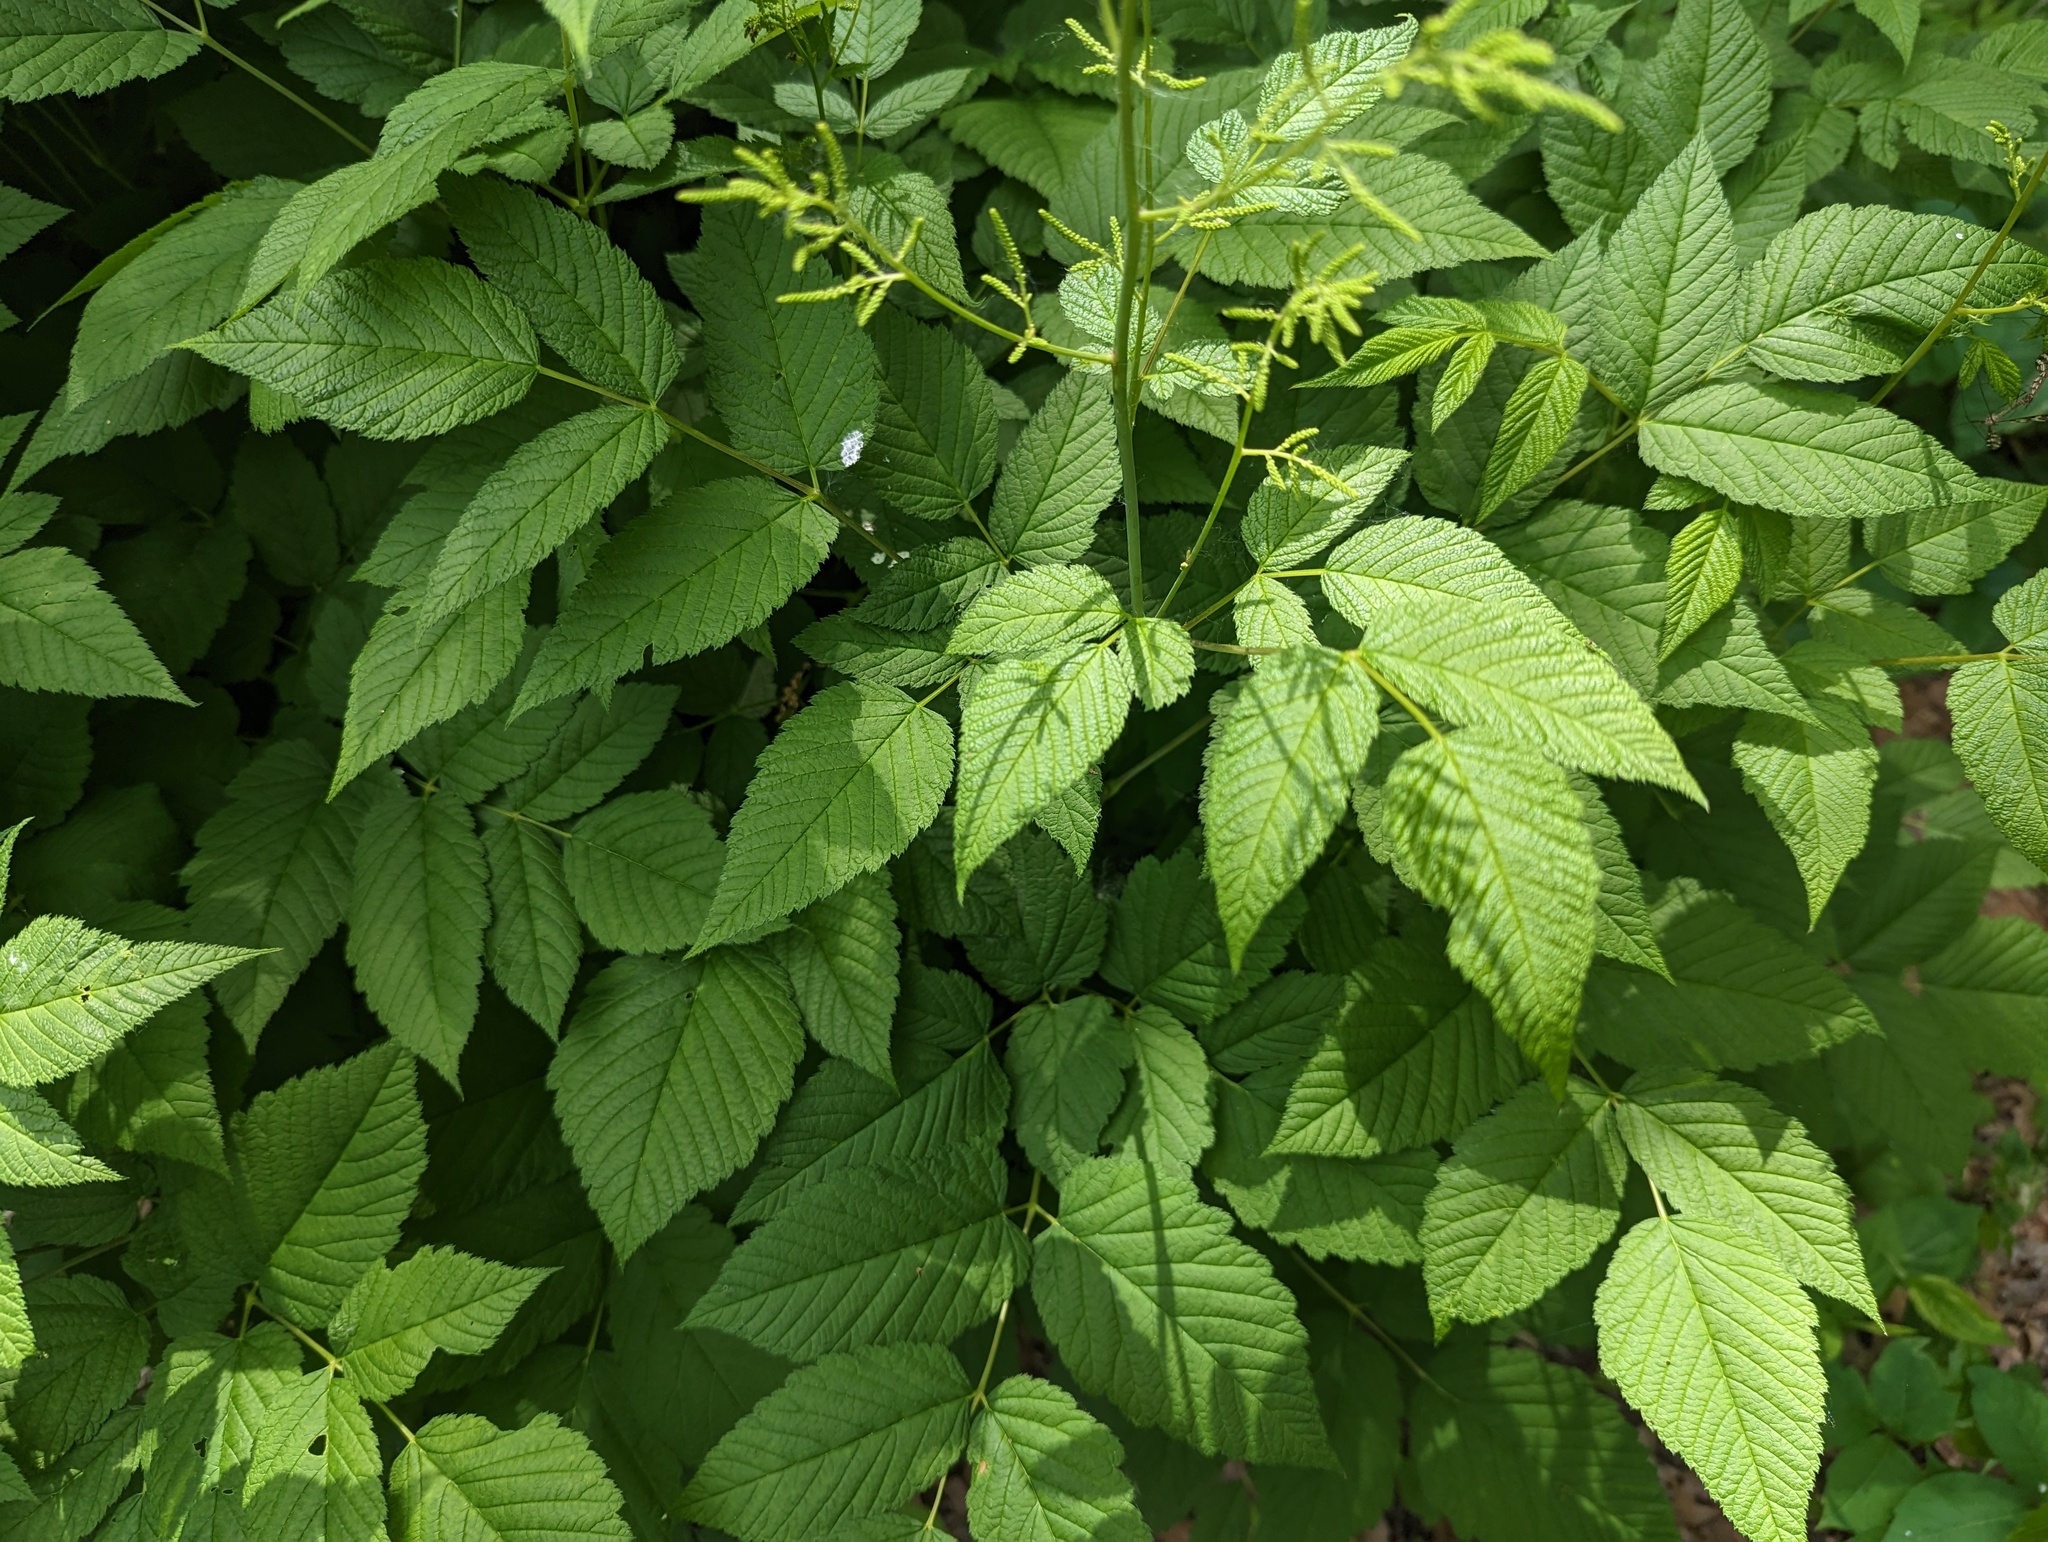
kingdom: Plantae
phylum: Tracheophyta
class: Magnoliopsida
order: Rosales
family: Rosaceae
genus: Aruncus
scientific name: Aruncus dioicus
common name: Buck's-beard
